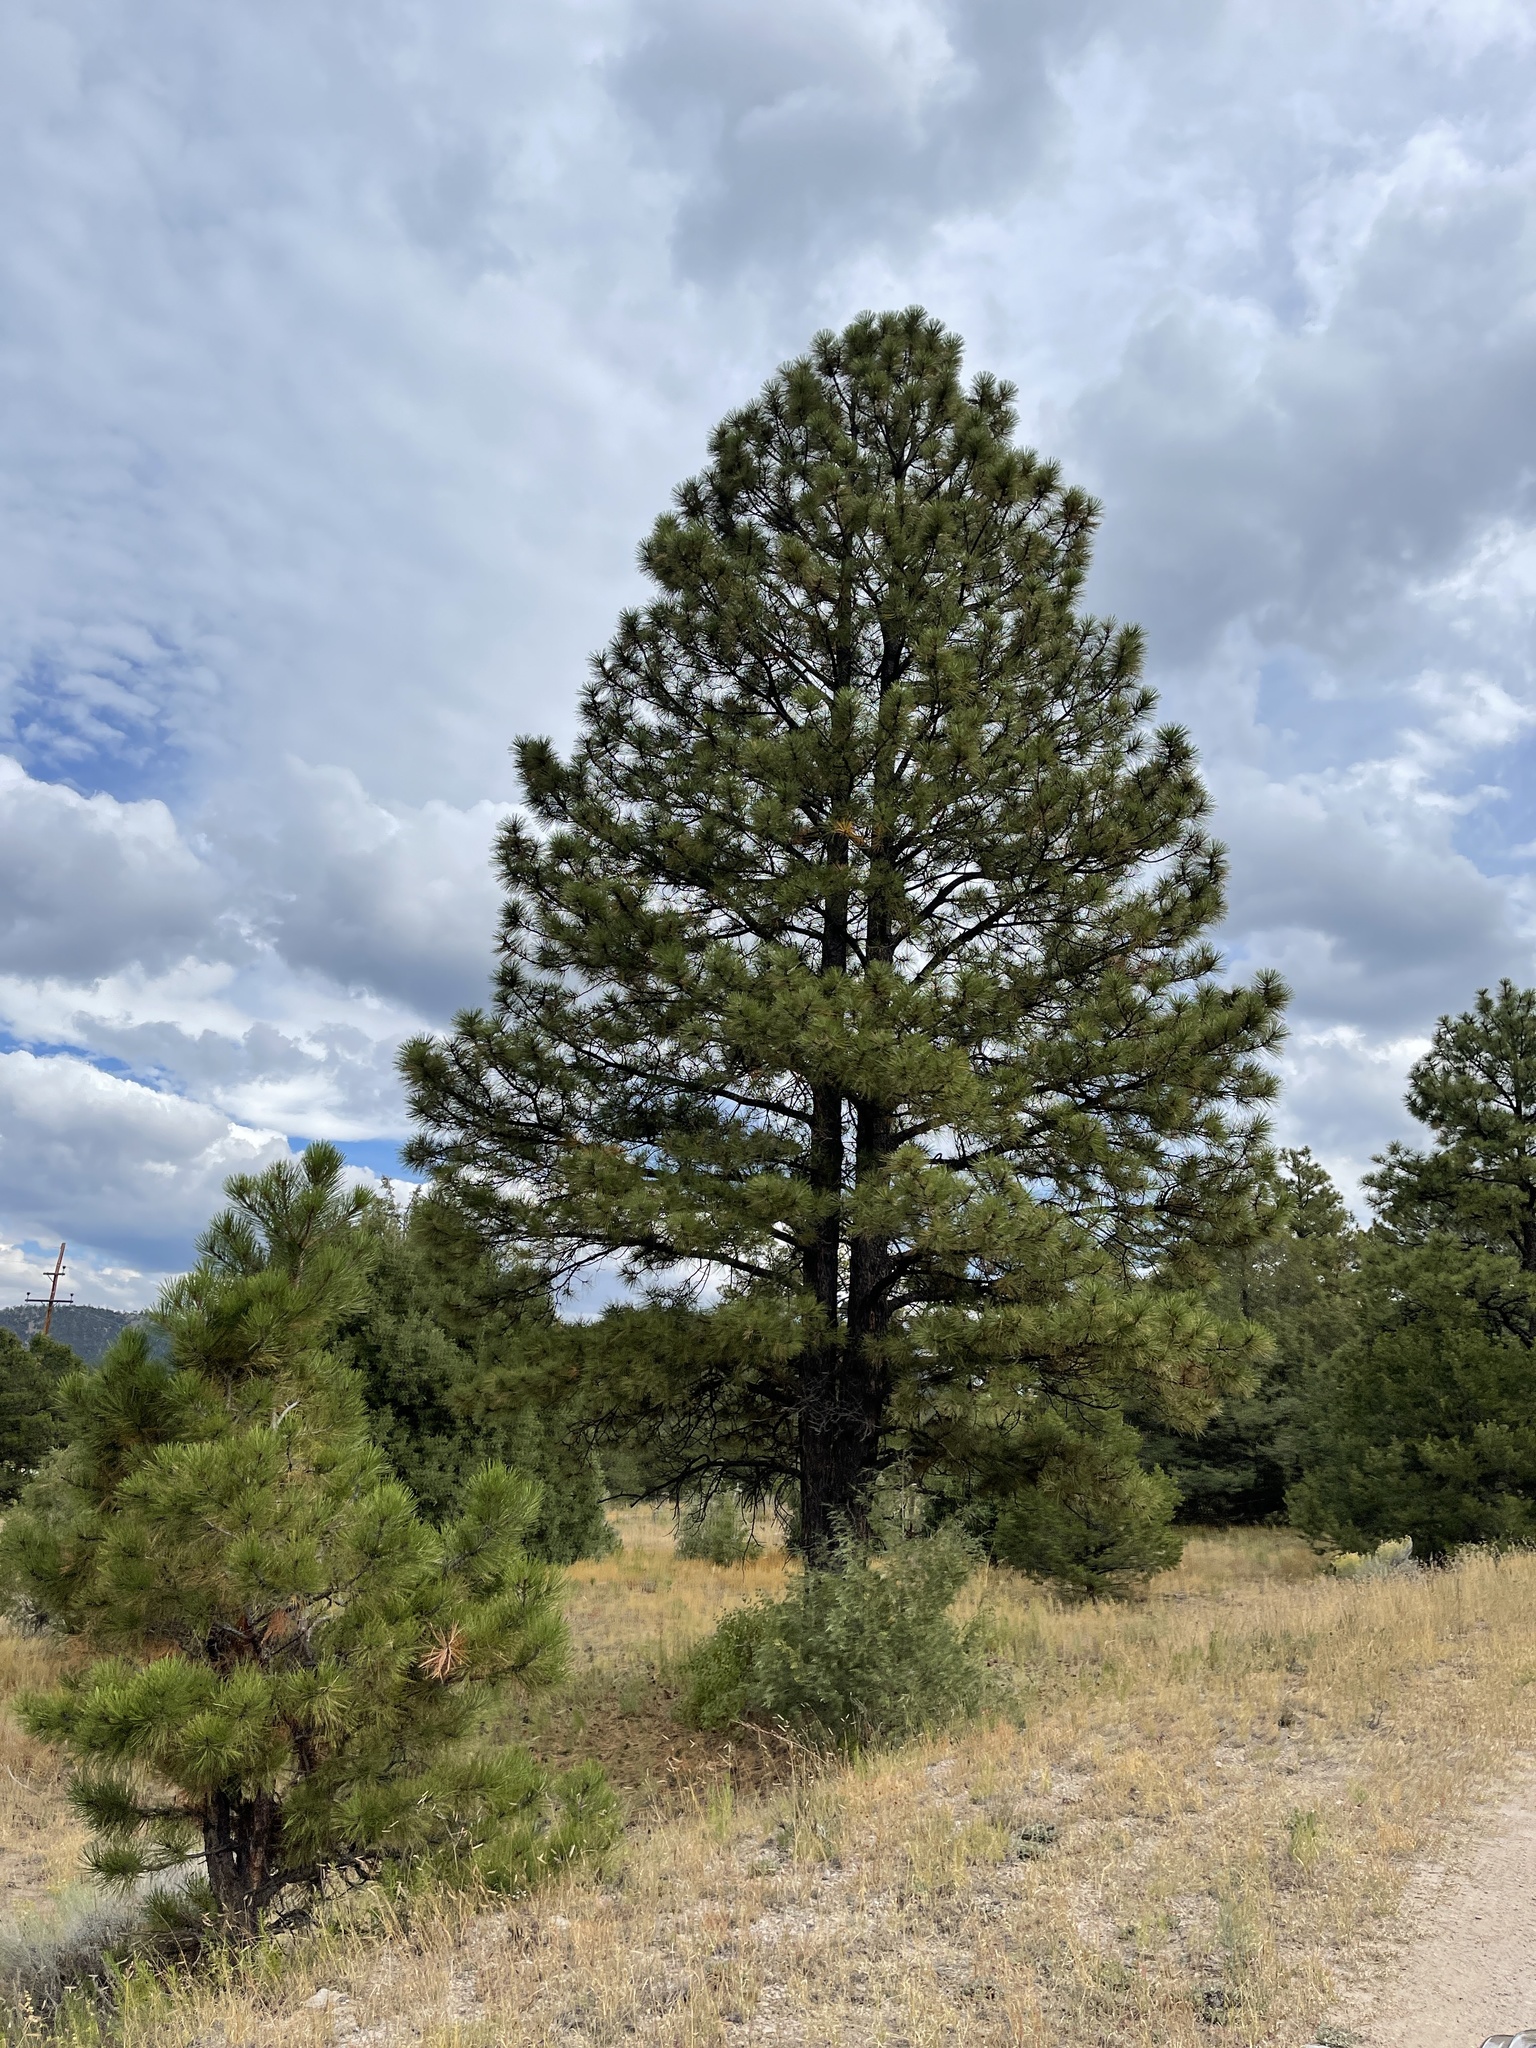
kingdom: Plantae
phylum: Tracheophyta
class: Pinopsida
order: Pinales
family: Pinaceae
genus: Pinus
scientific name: Pinus ponderosa
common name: Western yellow-pine
